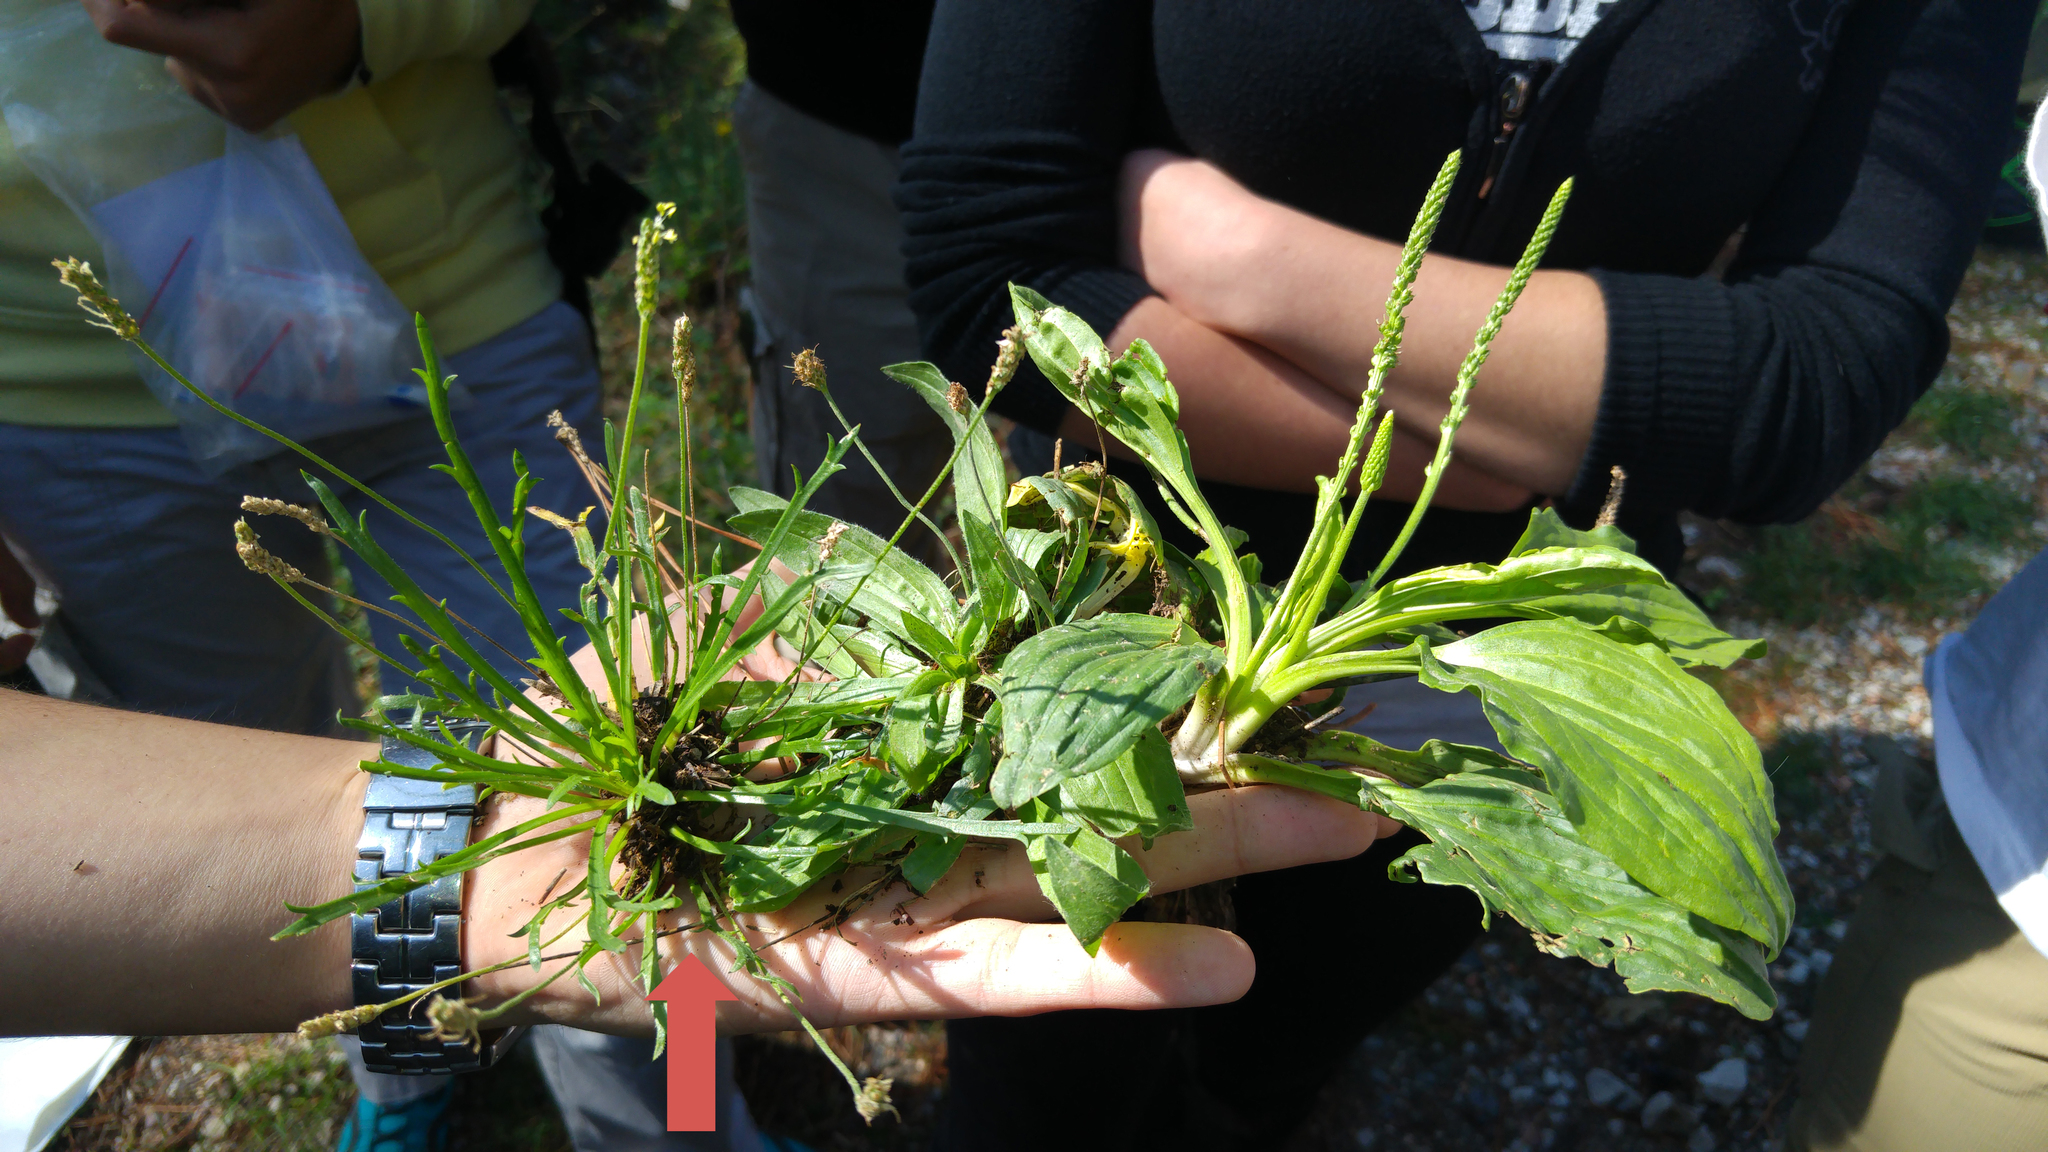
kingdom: Plantae
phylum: Tracheophyta
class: Magnoliopsida
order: Lamiales
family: Plantaginaceae
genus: Plantago
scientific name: Plantago coronopus
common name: Buck's-horn plantain
